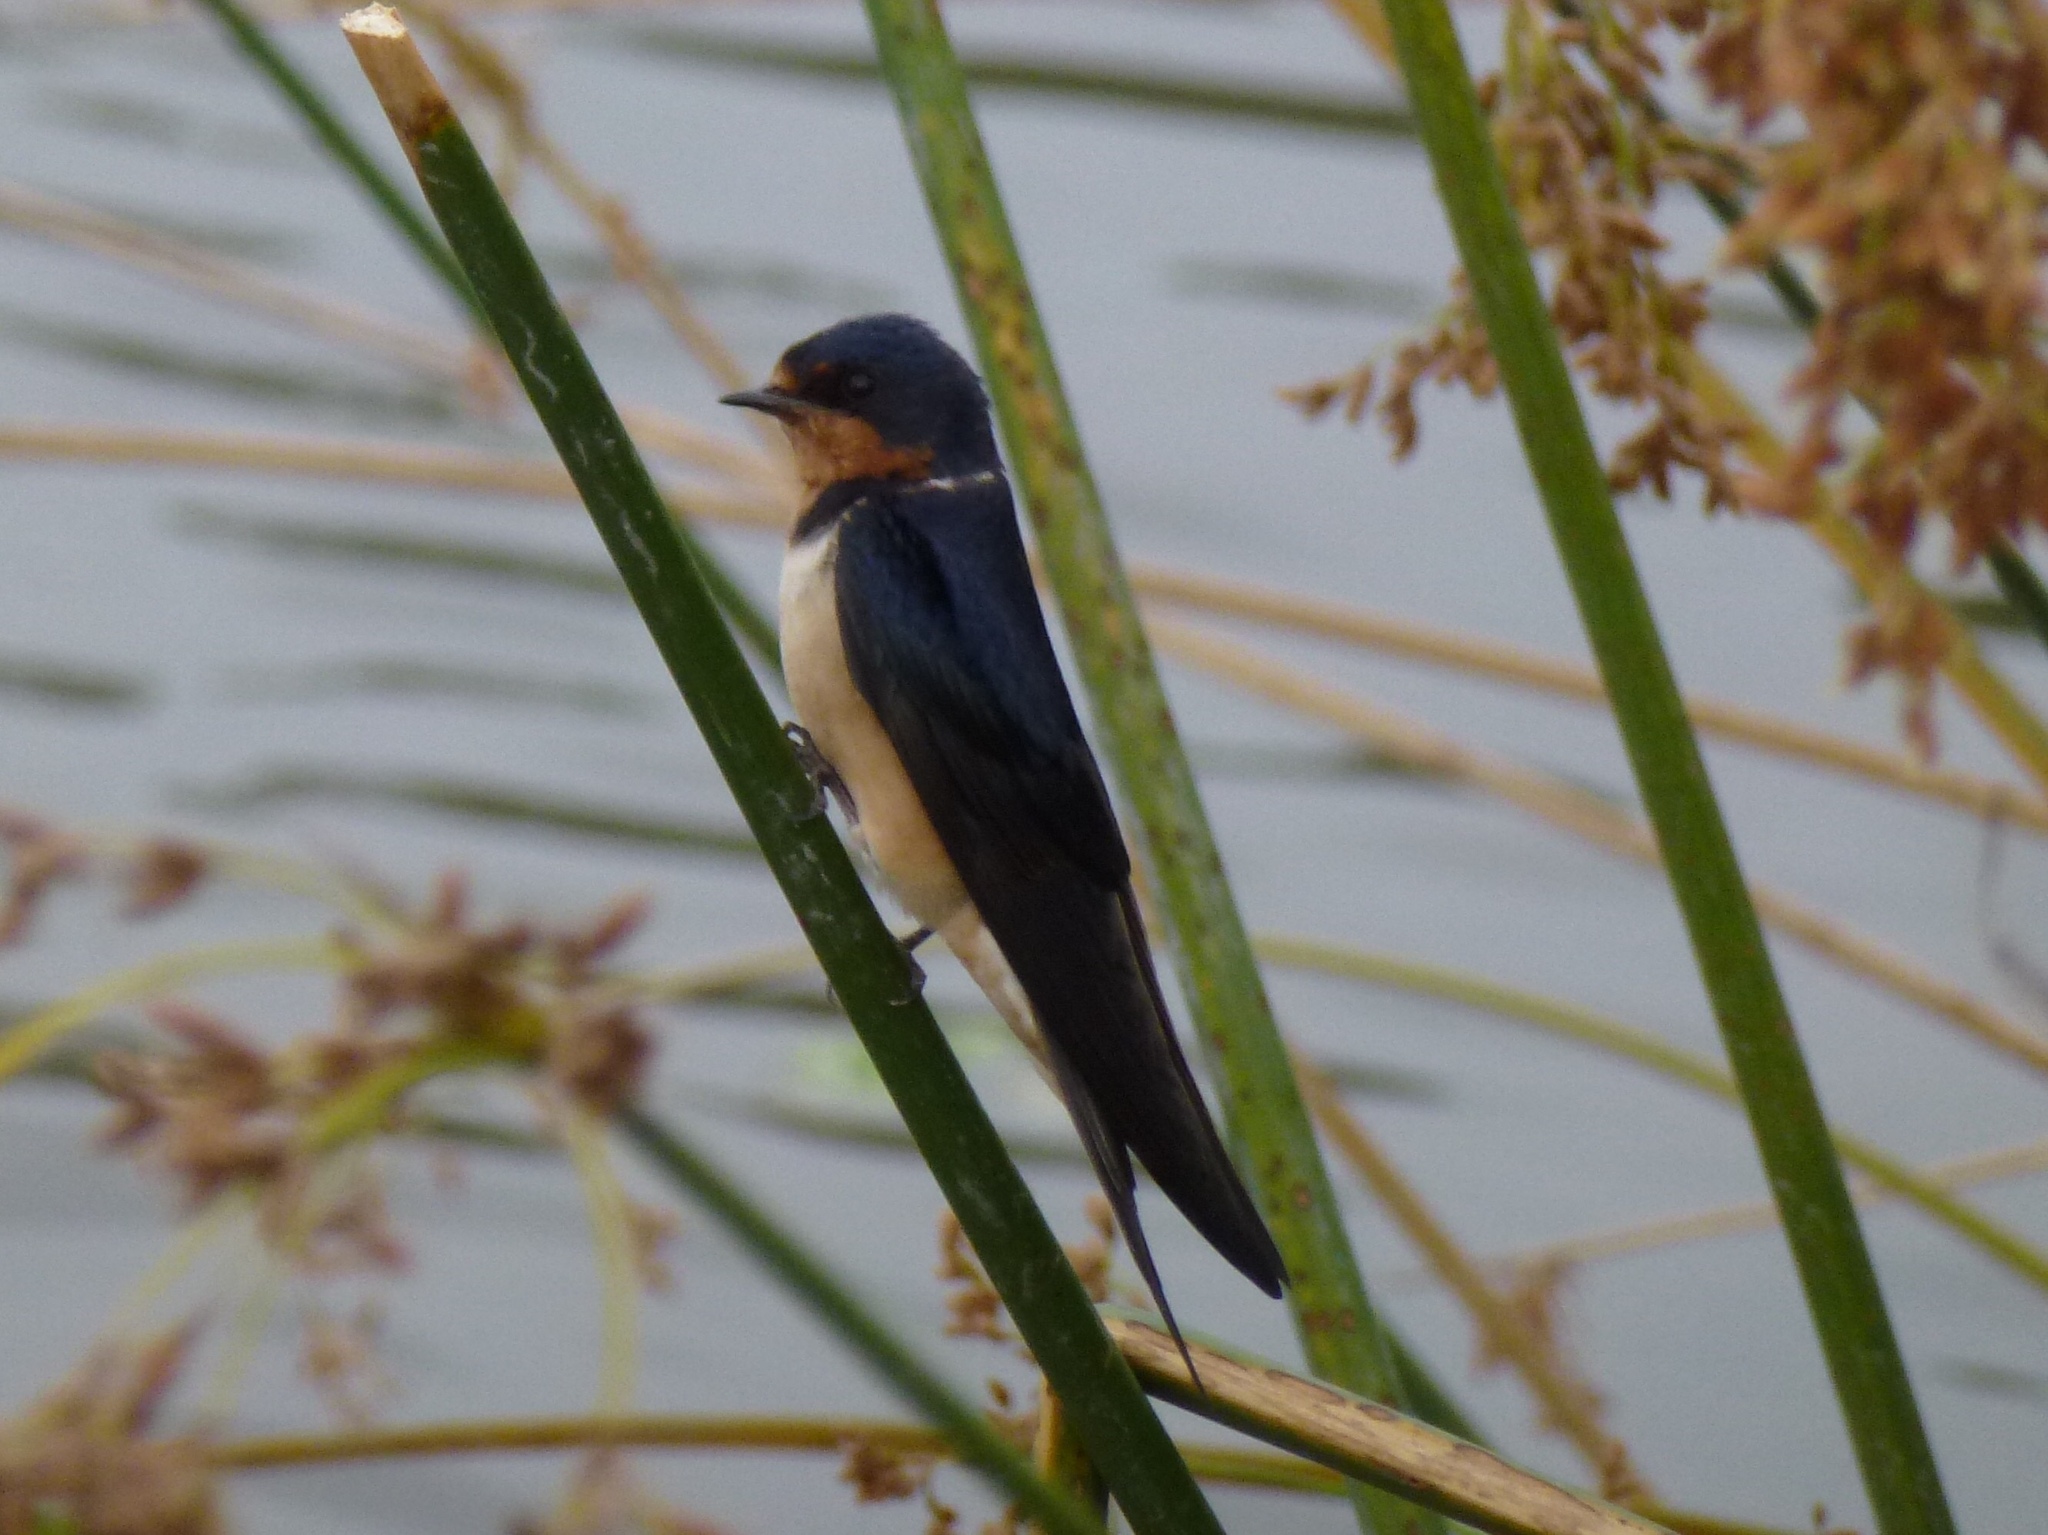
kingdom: Animalia
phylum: Chordata
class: Aves
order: Passeriformes
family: Hirundinidae
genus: Hirundo
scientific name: Hirundo rustica
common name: Barn swallow
